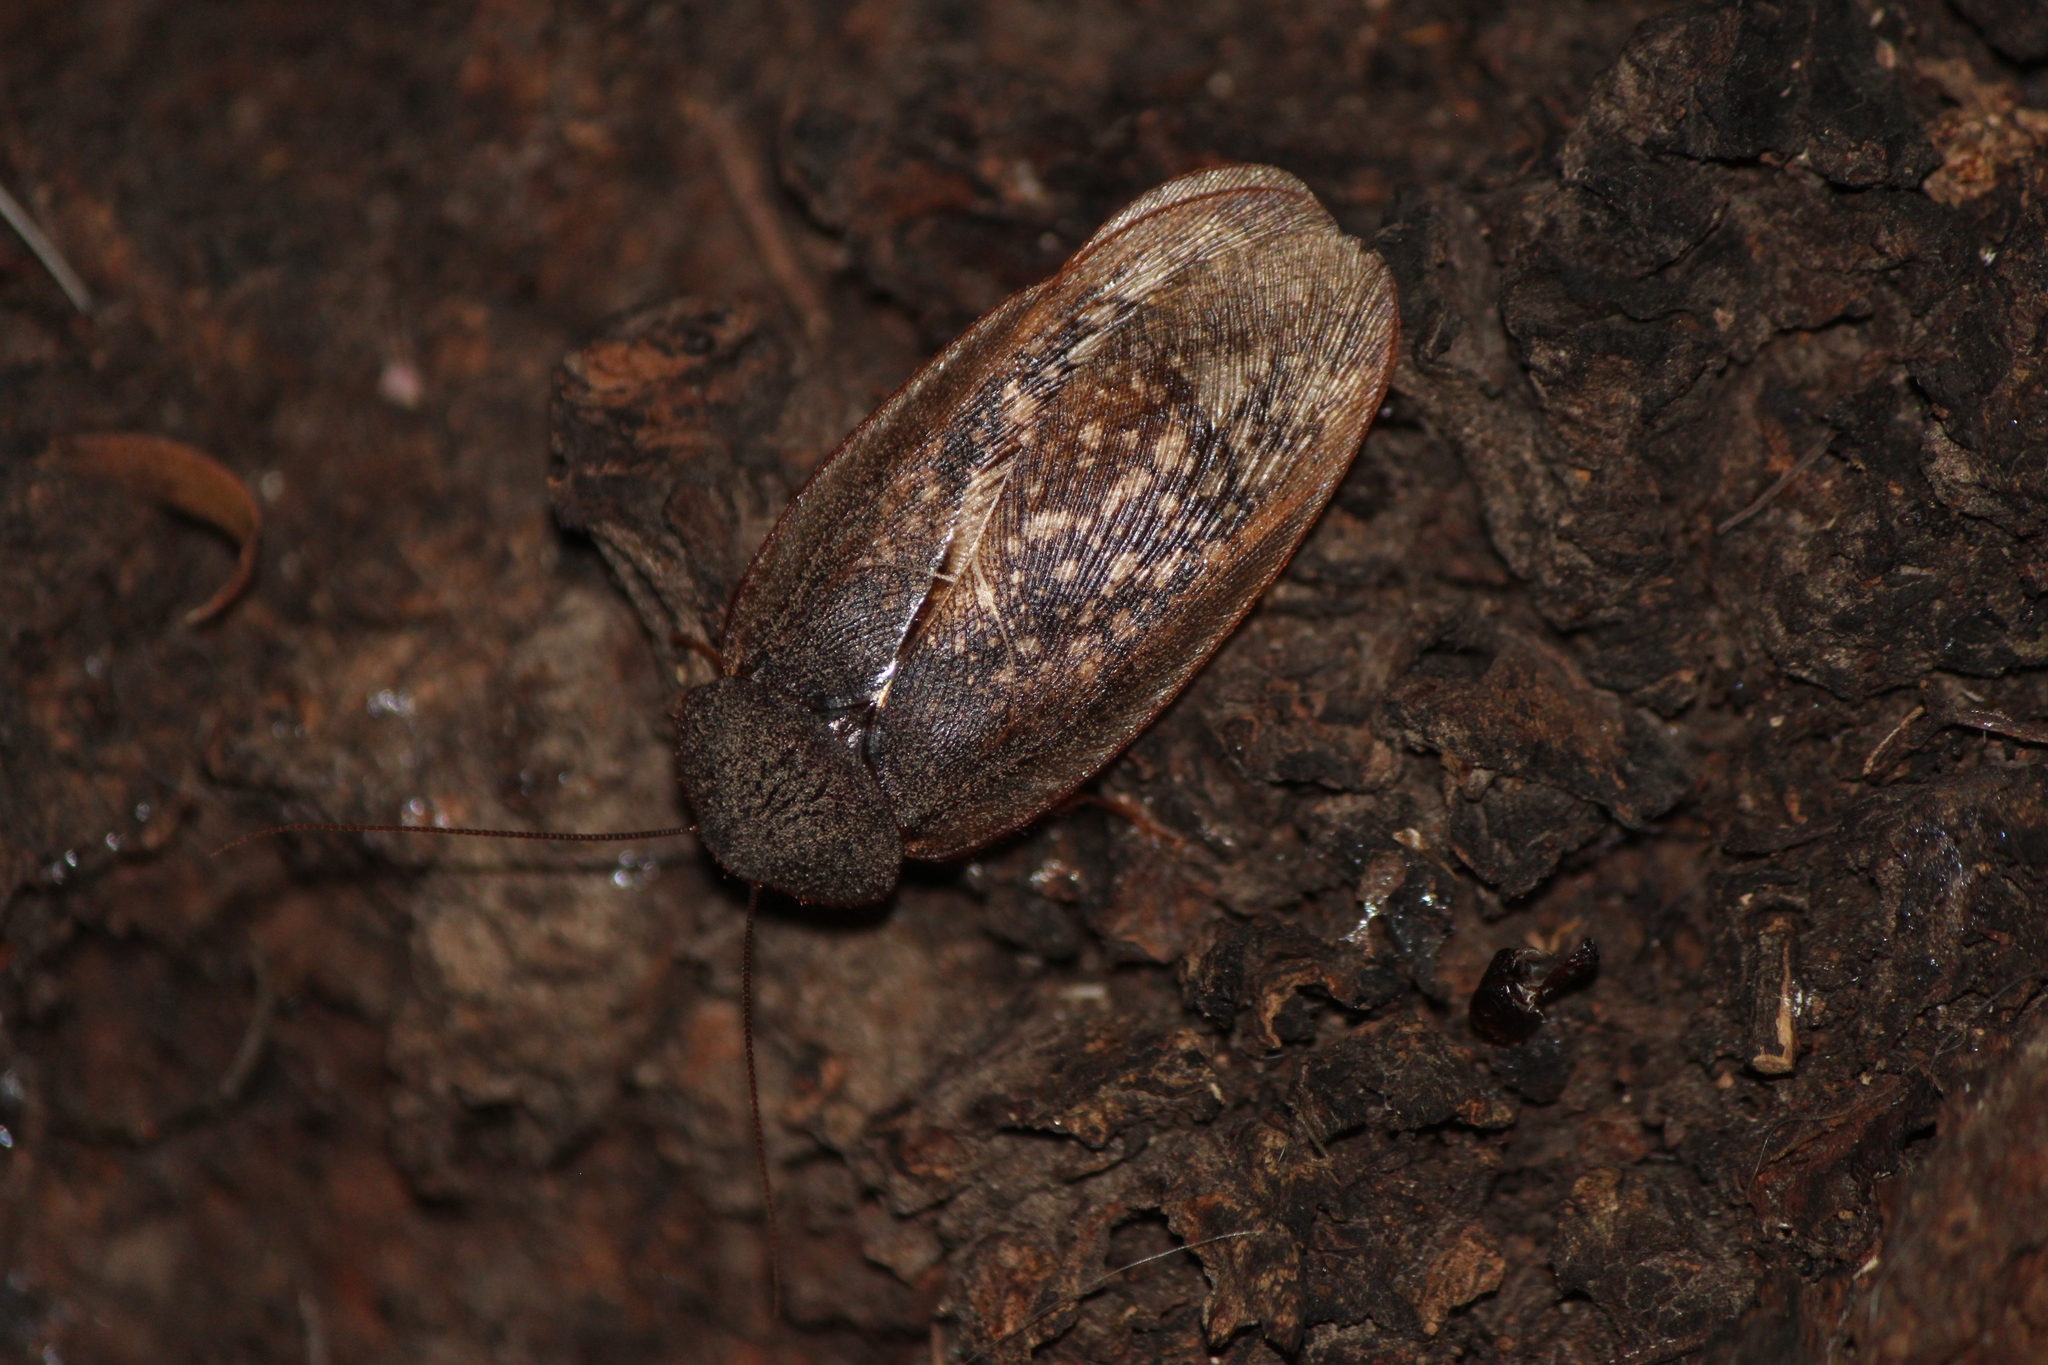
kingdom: Animalia
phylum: Arthropoda
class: Insecta
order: Blattodea
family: Corydiidae
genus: Homoeogamia
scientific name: Homoeogamia mexicana
